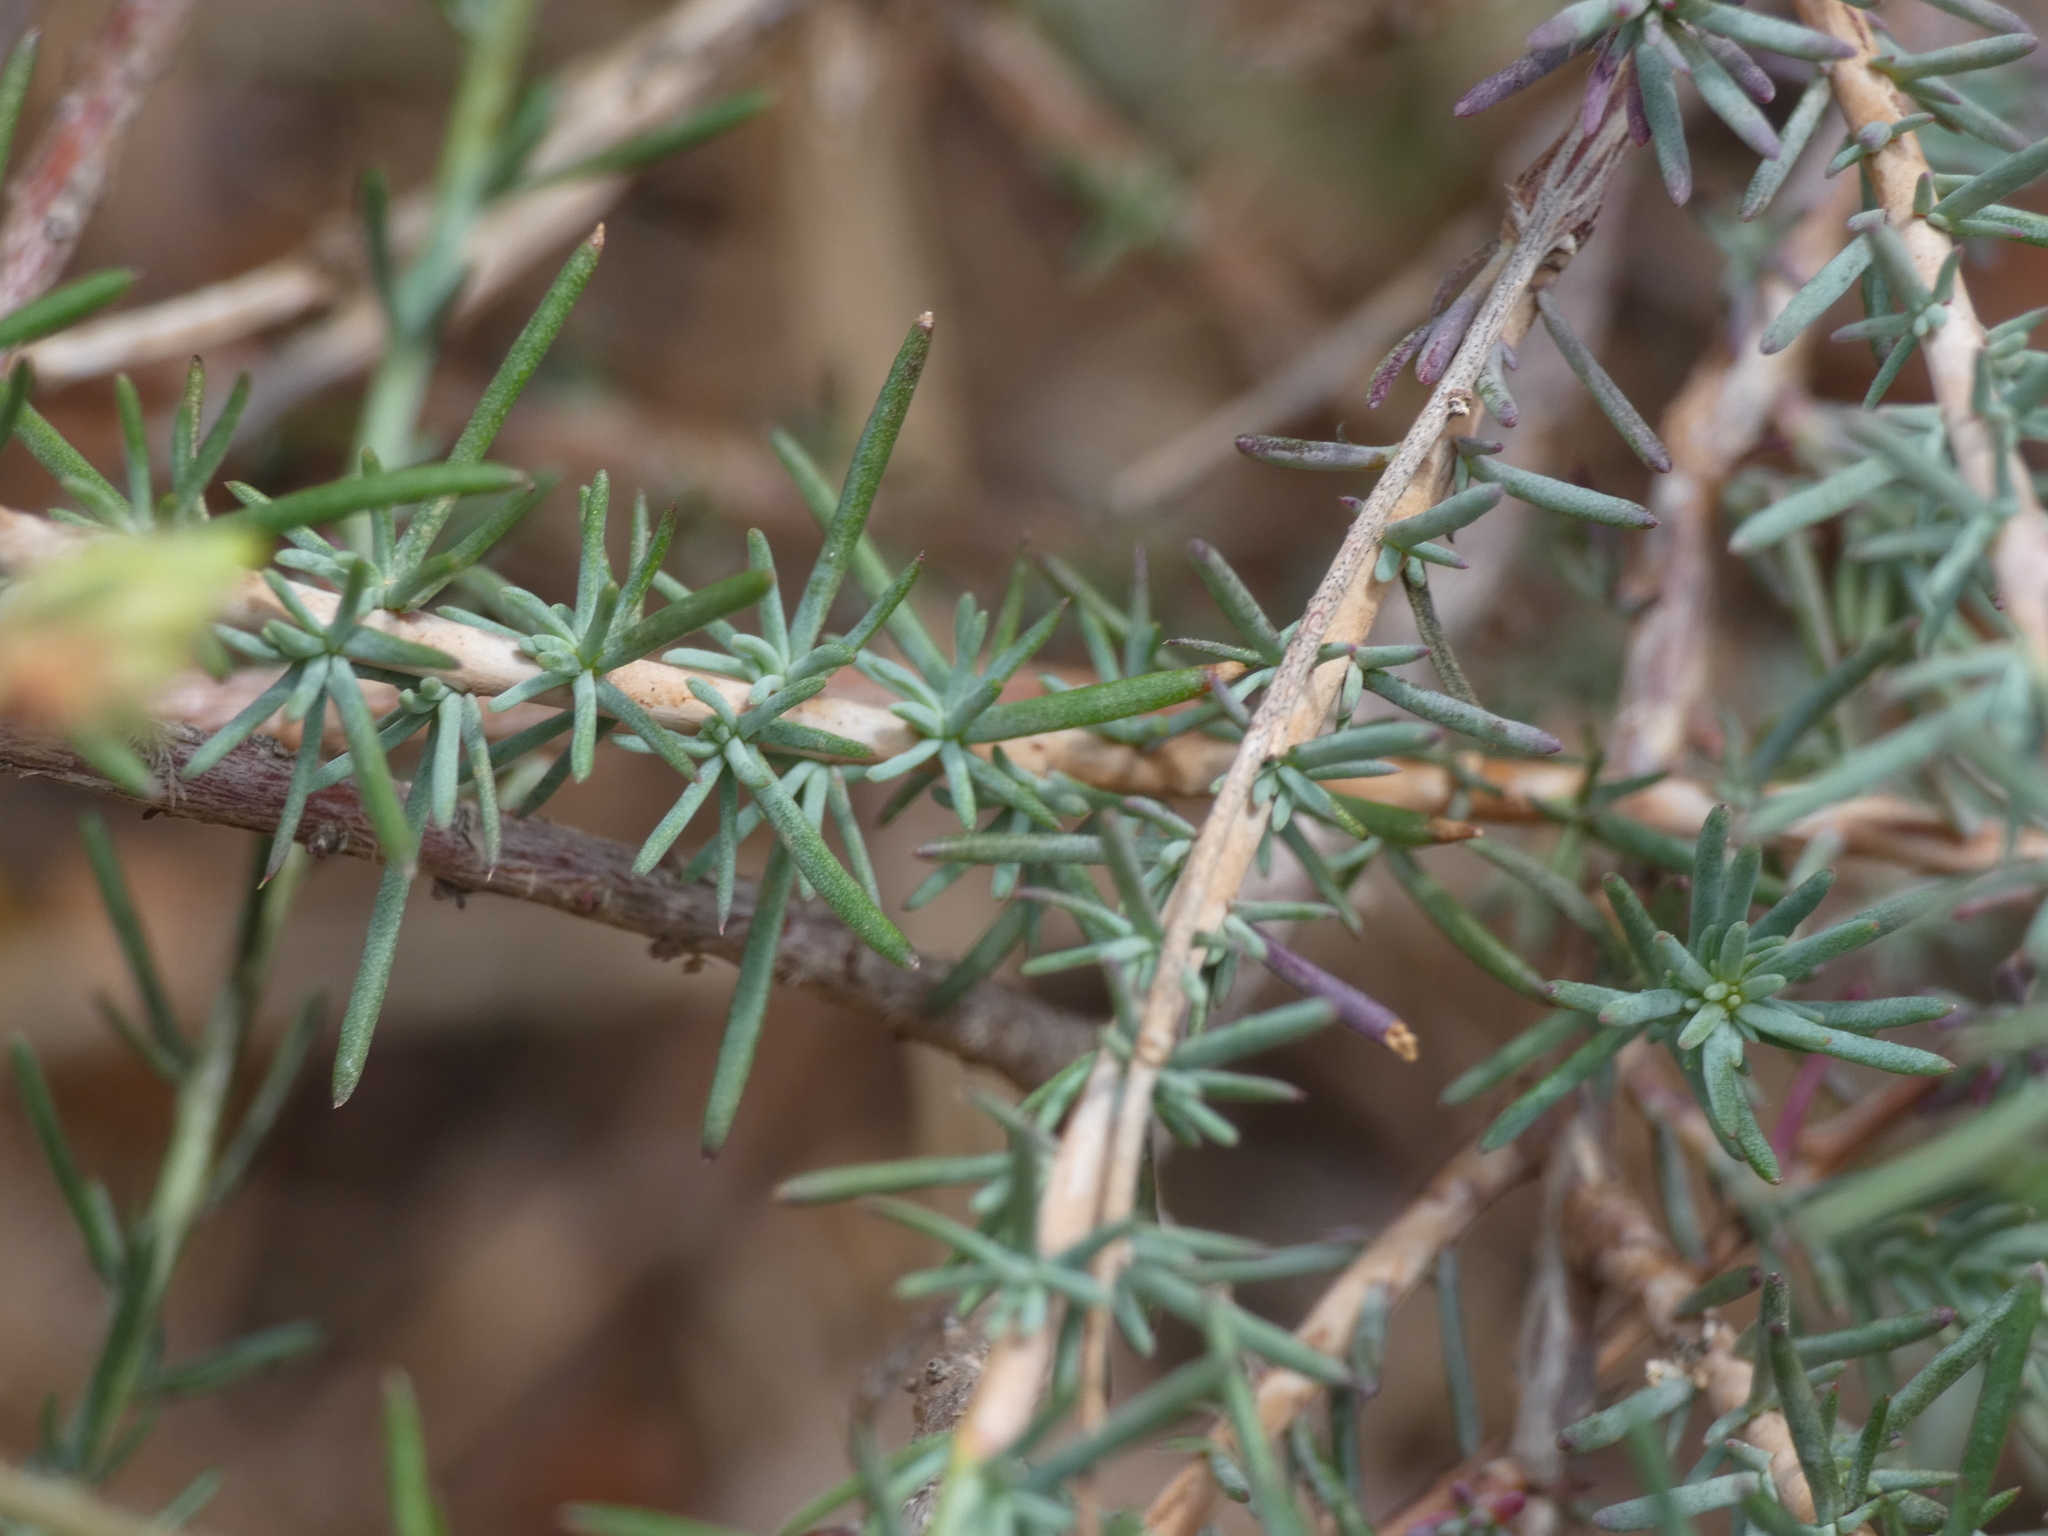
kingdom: Plantae
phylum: Tracheophyta
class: Magnoliopsida
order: Malvales
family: Cistaceae
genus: Fumana
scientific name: Fumana laevipes
